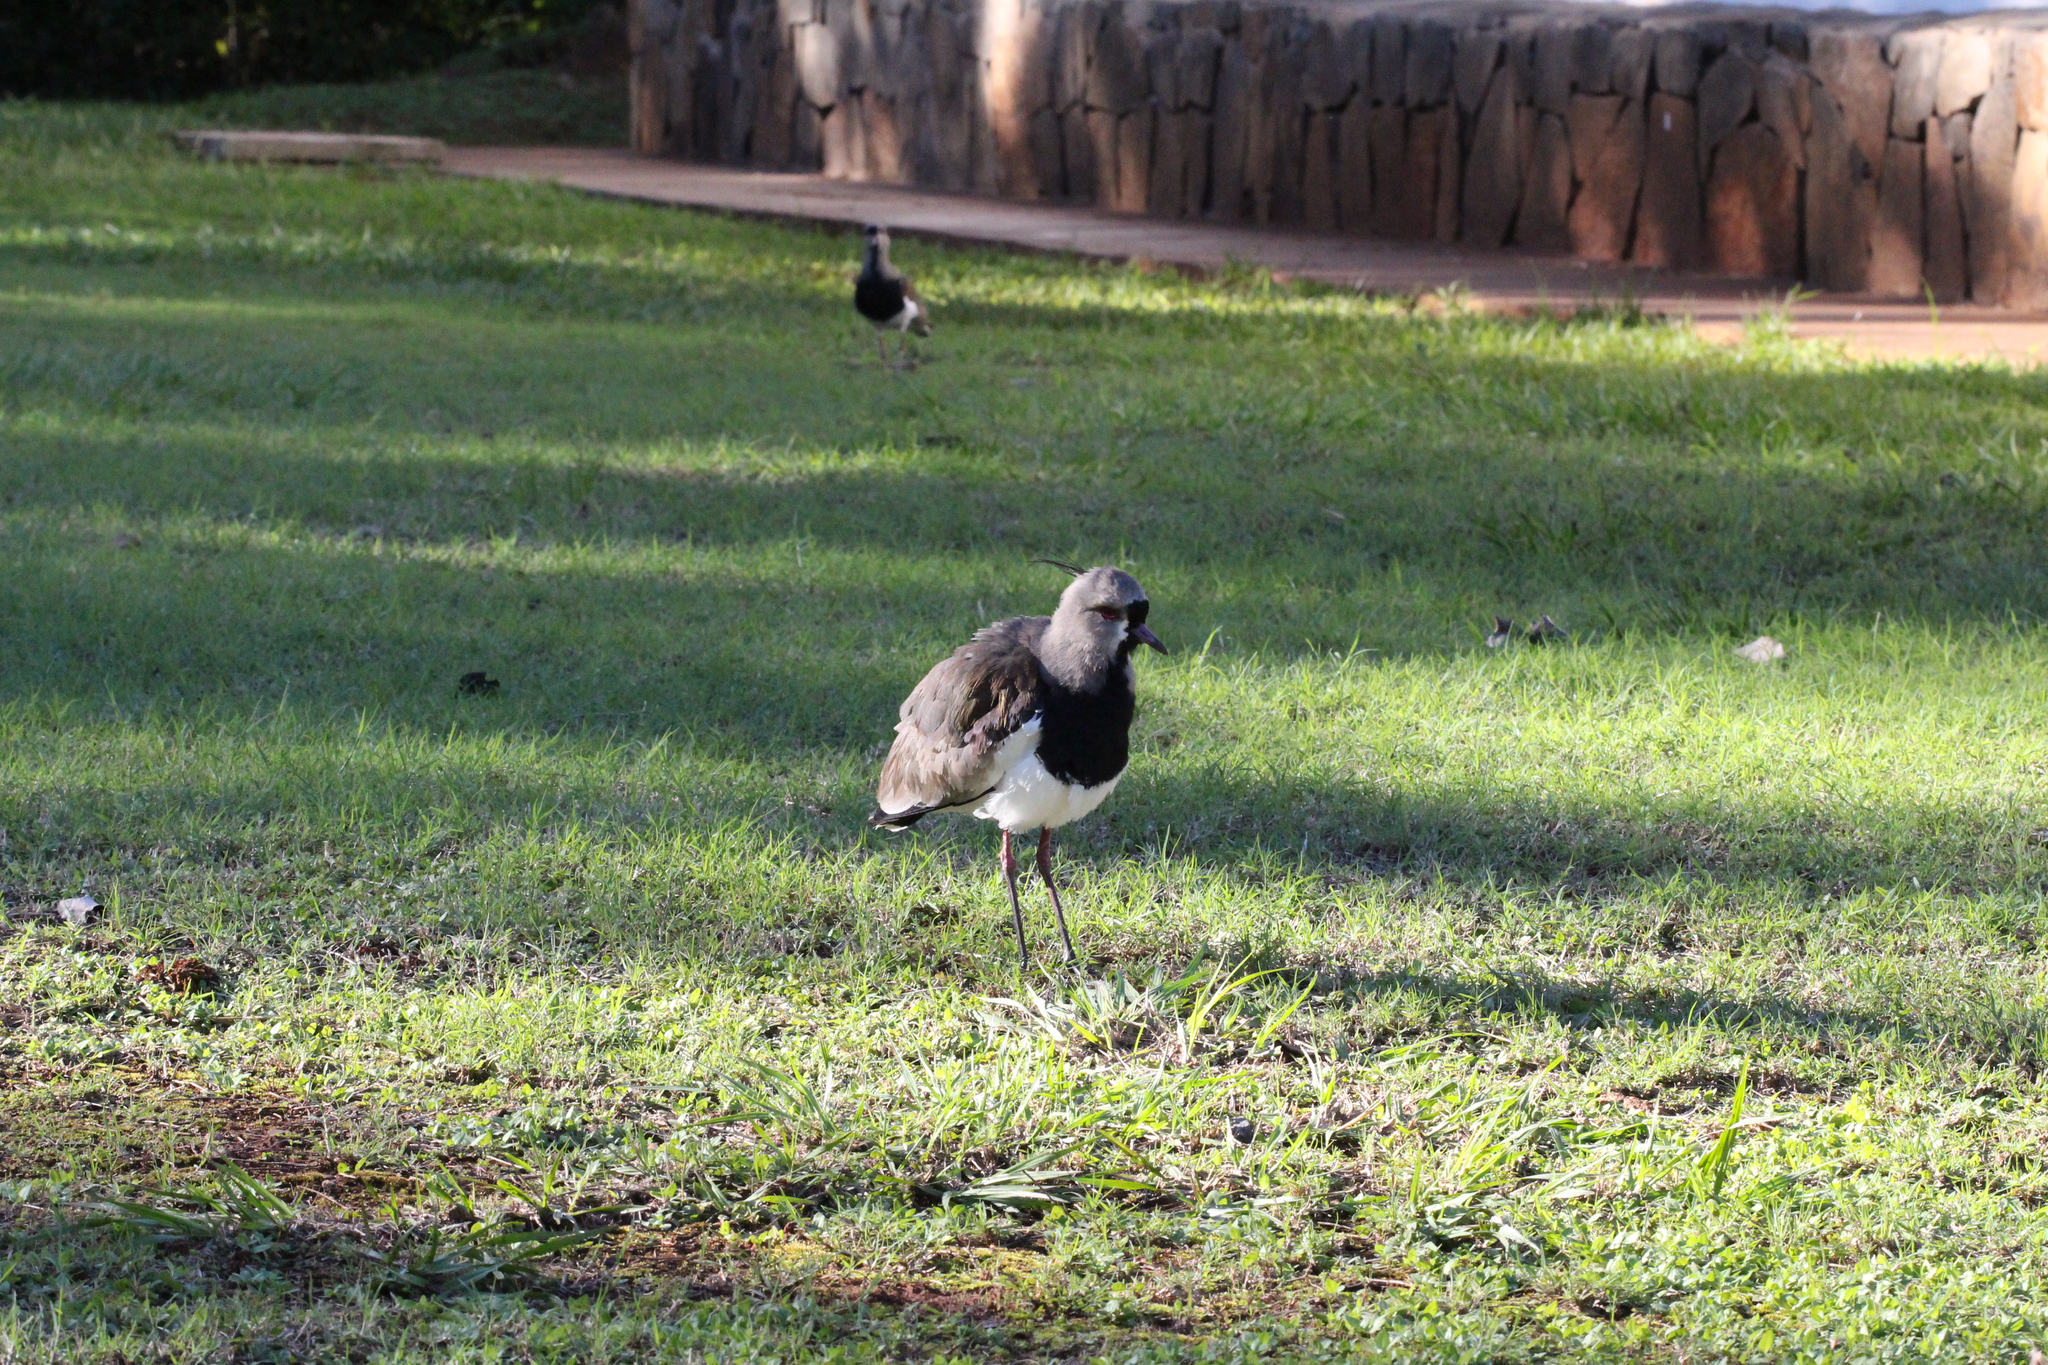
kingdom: Animalia
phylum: Chordata
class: Aves
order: Charadriiformes
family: Charadriidae
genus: Vanellus
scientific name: Vanellus chilensis
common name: Southern lapwing
